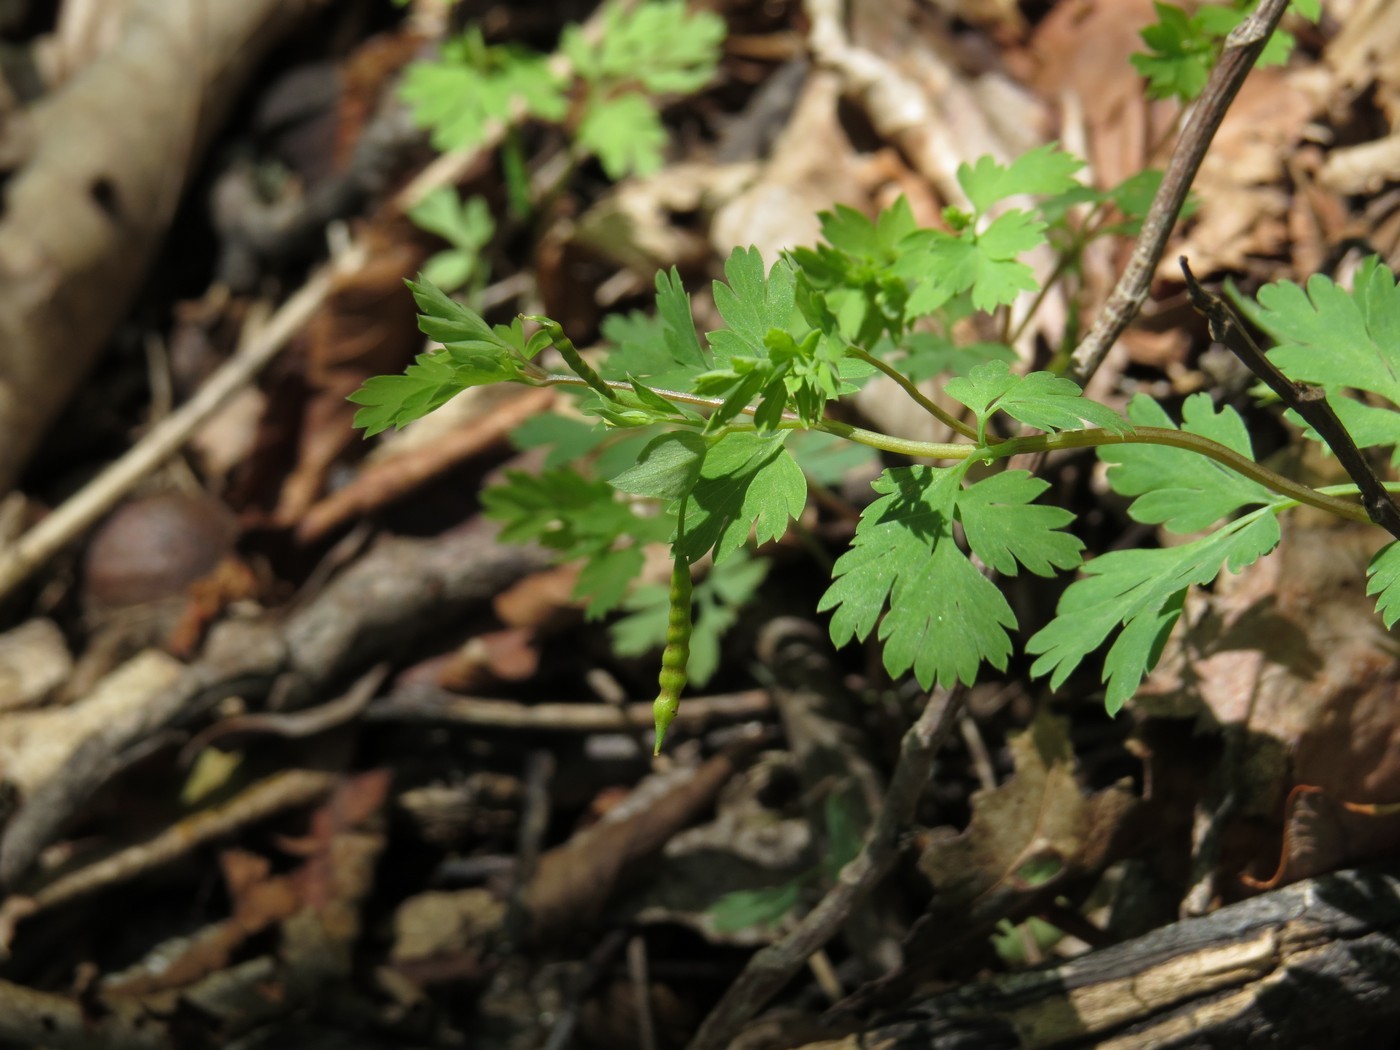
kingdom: Plantae
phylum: Tracheophyta
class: Magnoliopsida
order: Ranunculales
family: Papaveraceae
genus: Corydalis
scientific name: Corydalis flavula
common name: Yellow corydalis
